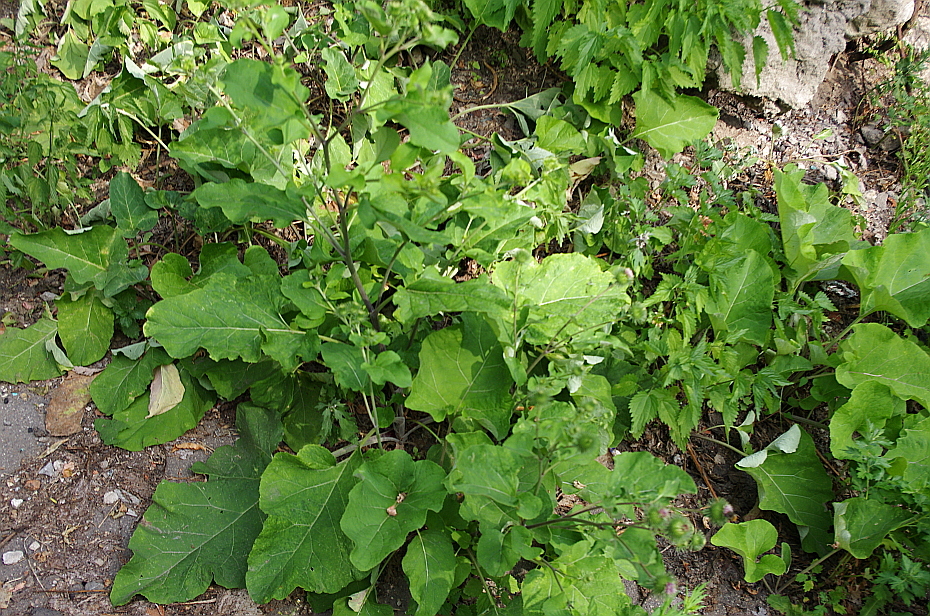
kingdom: Plantae
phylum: Tracheophyta
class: Magnoliopsida
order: Asterales
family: Asteraceae
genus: Arctium
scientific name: Arctium lappa
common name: Greater burdock
